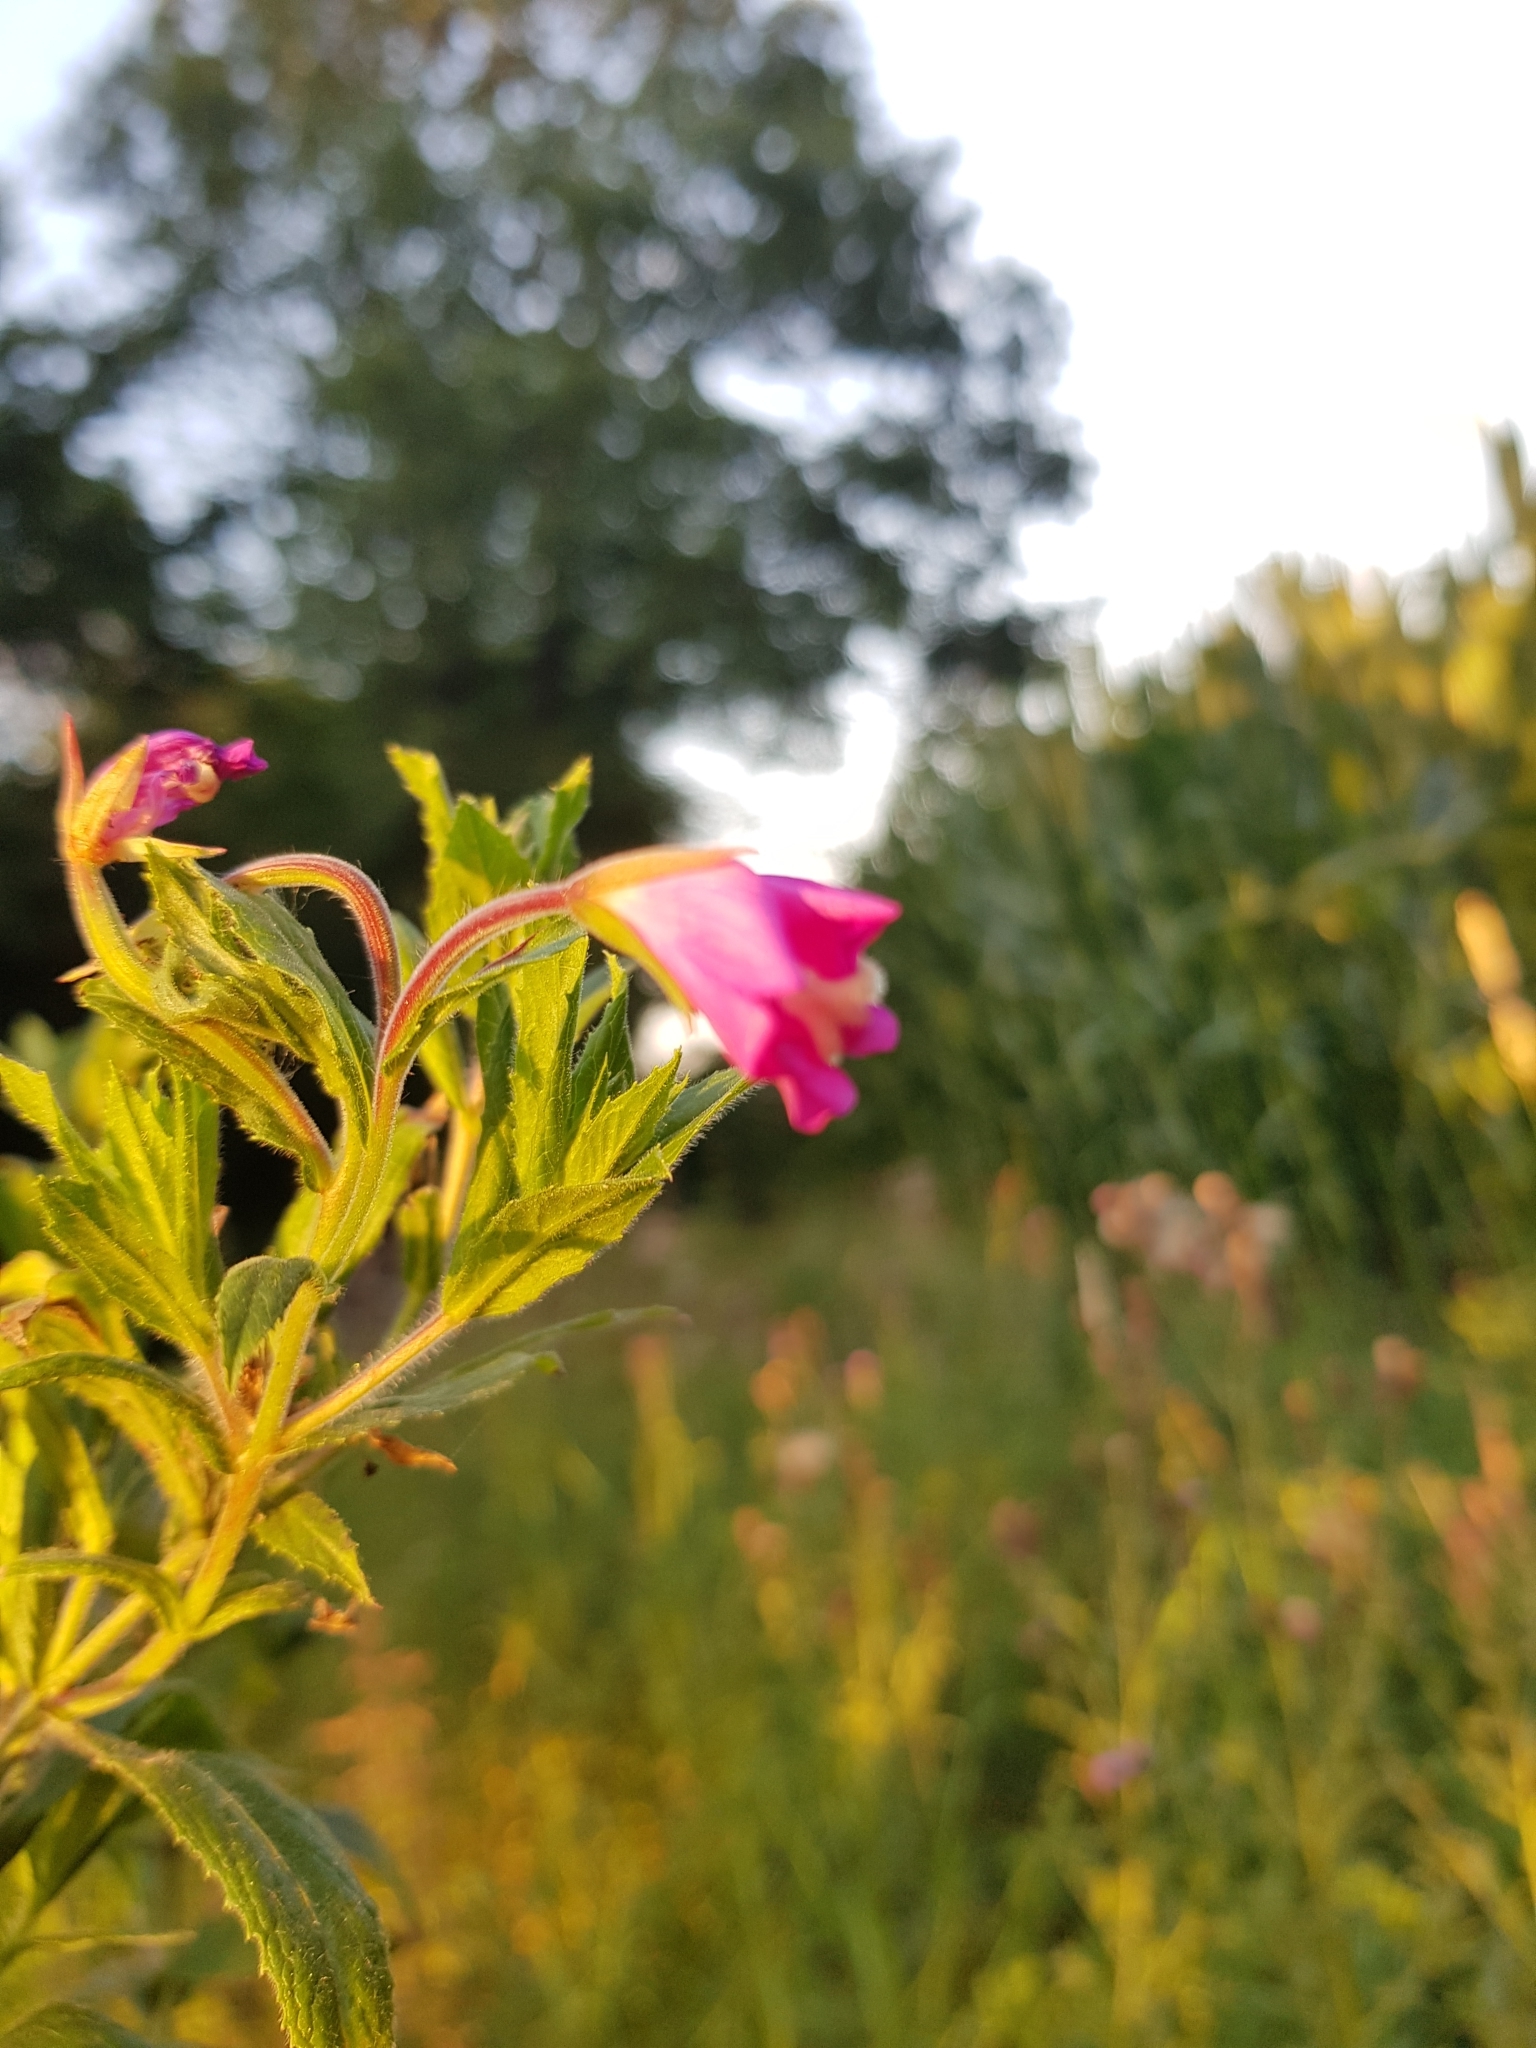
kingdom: Plantae
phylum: Tracheophyta
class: Magnoliopsida
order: Myrtales
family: Onagraceae
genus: Epilobium
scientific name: Epilobium hirsutum
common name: Great willowherb
